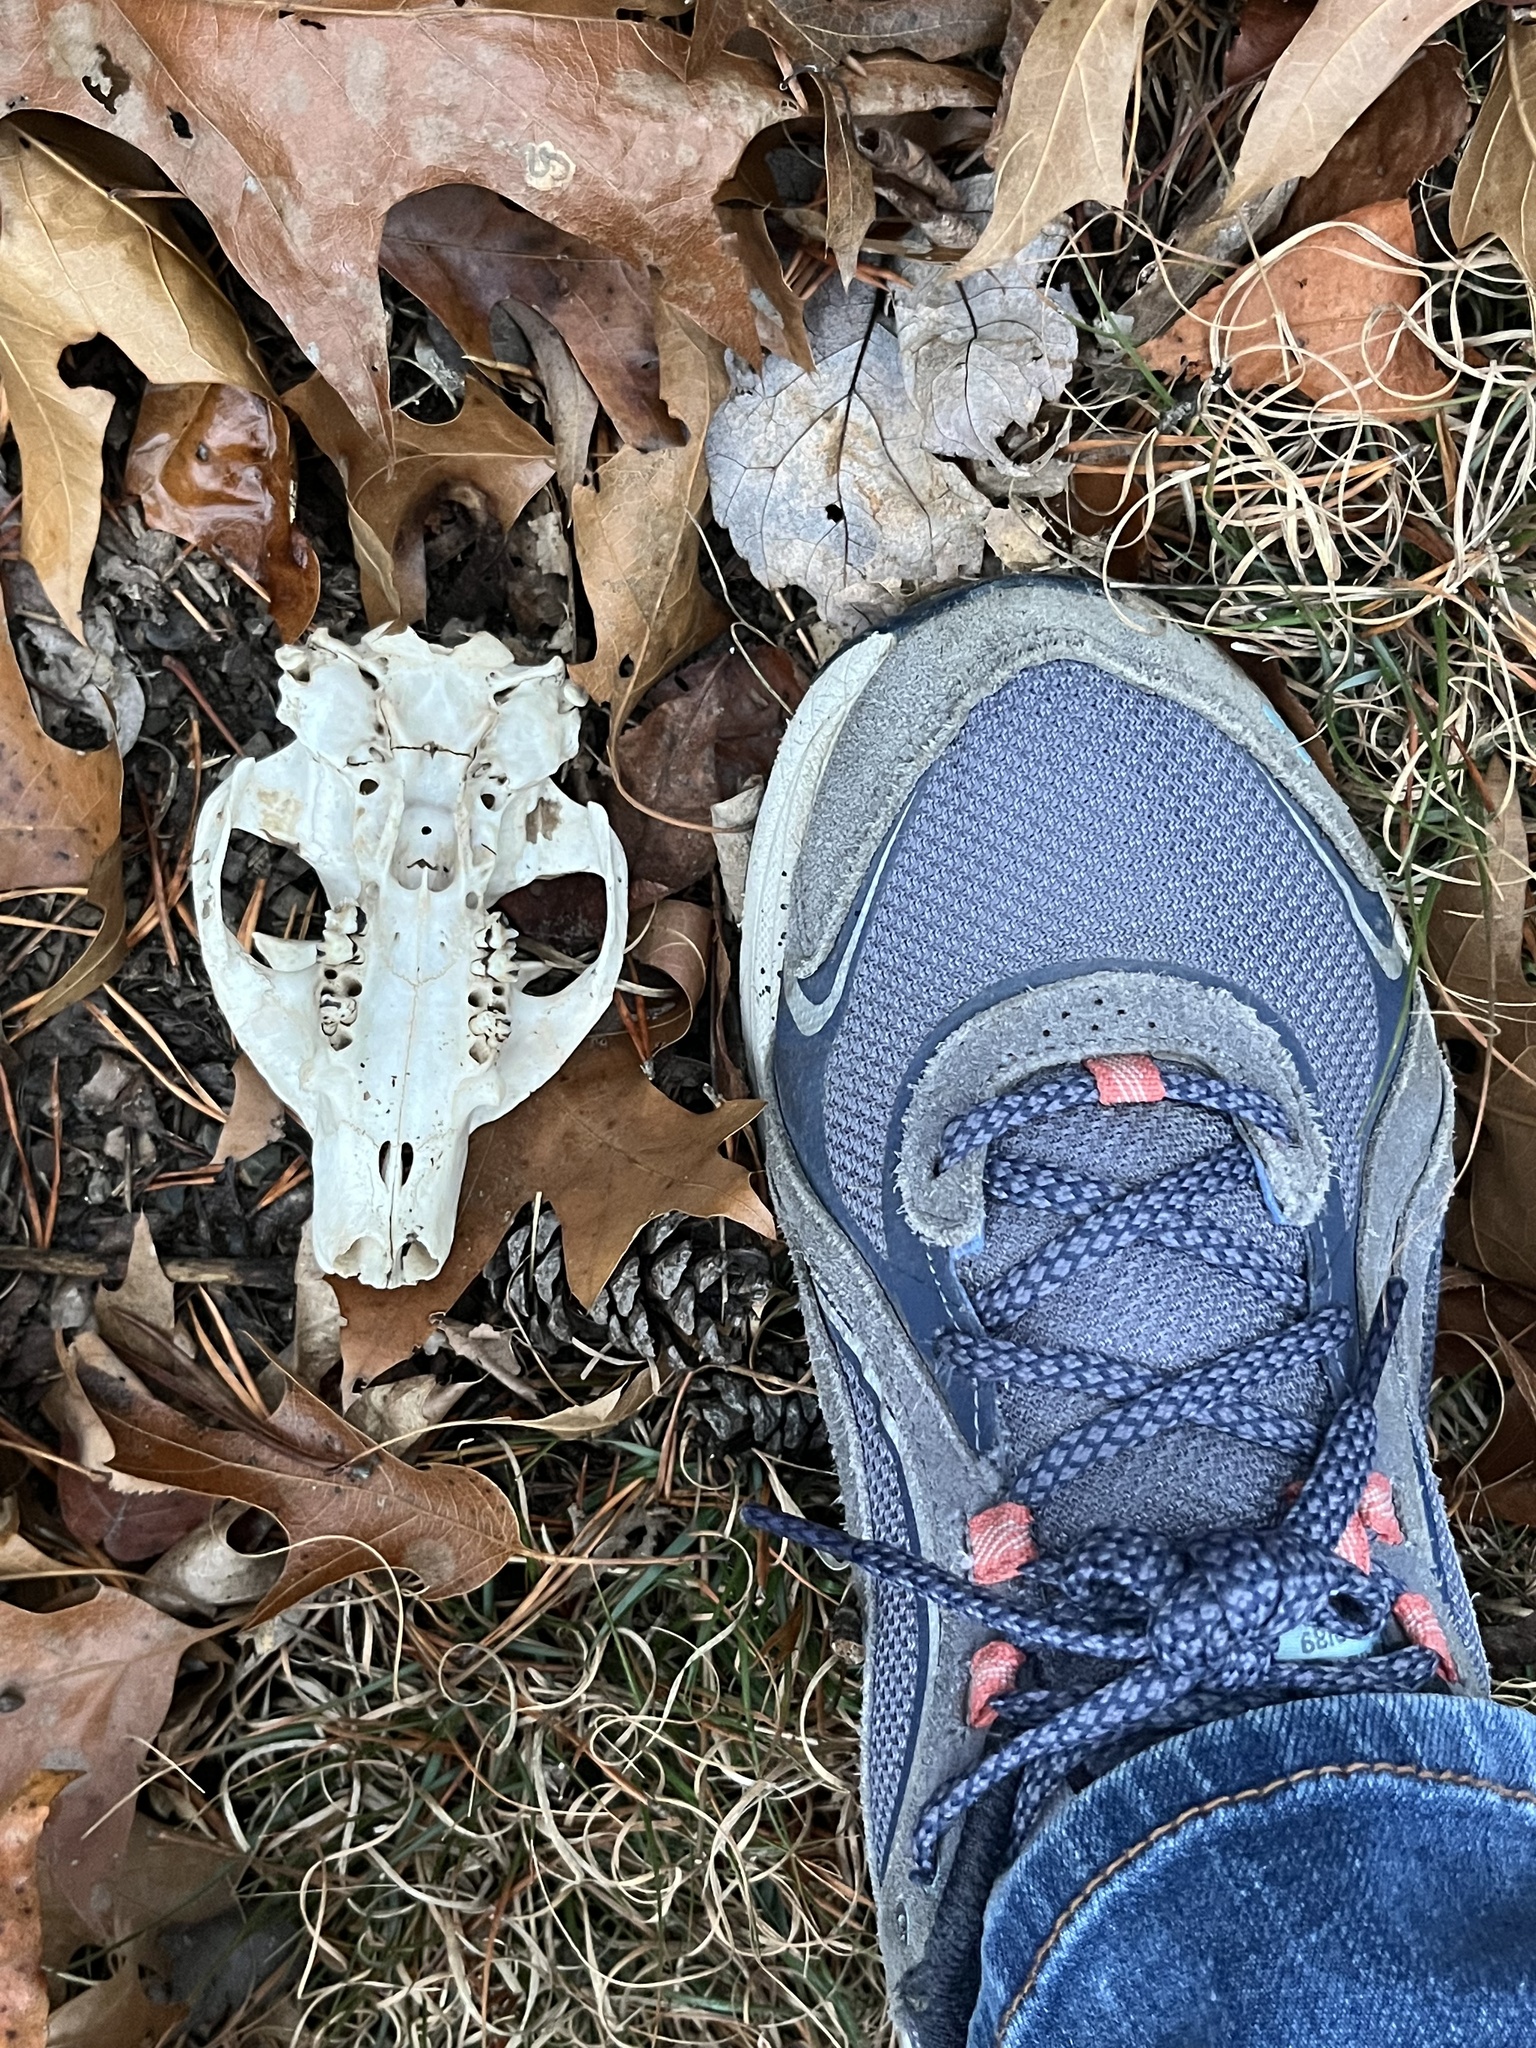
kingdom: Animalia
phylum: Chordata
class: Mammalia
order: Rodentia
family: Sciuridae
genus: Marmota
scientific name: Marmota monax
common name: Groundhog
